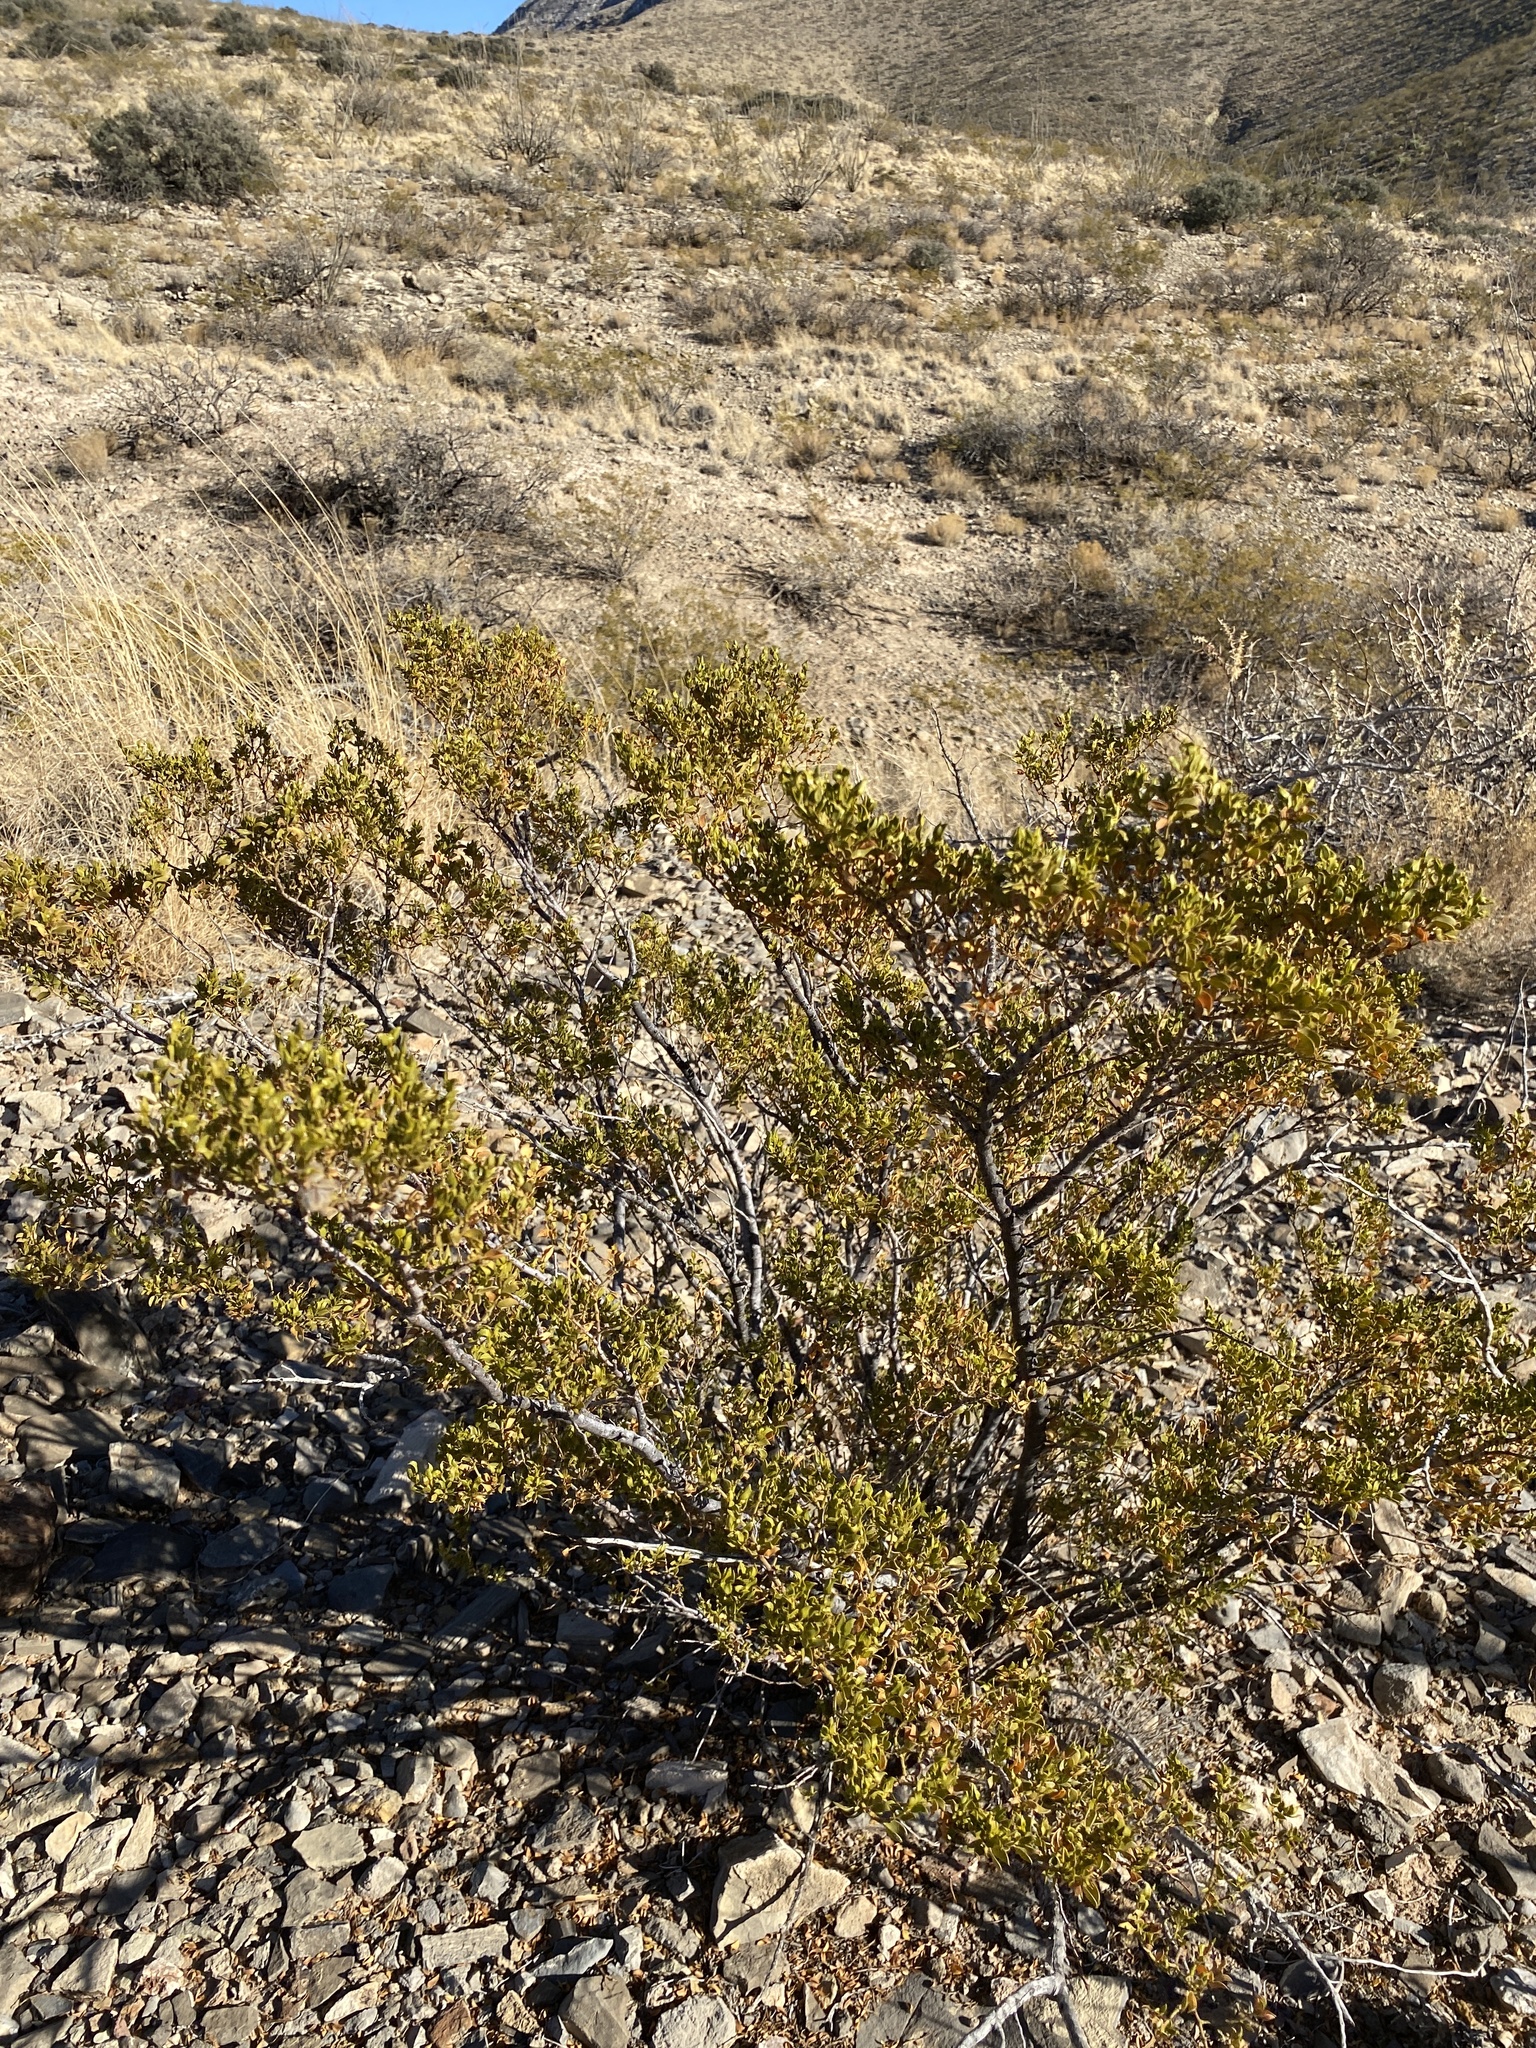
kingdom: Plantae
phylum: Tracheophyta
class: Magnoliopsida
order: Zygophyllales
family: Zygophyllaceae
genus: Larrea
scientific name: Larrea tridentata
